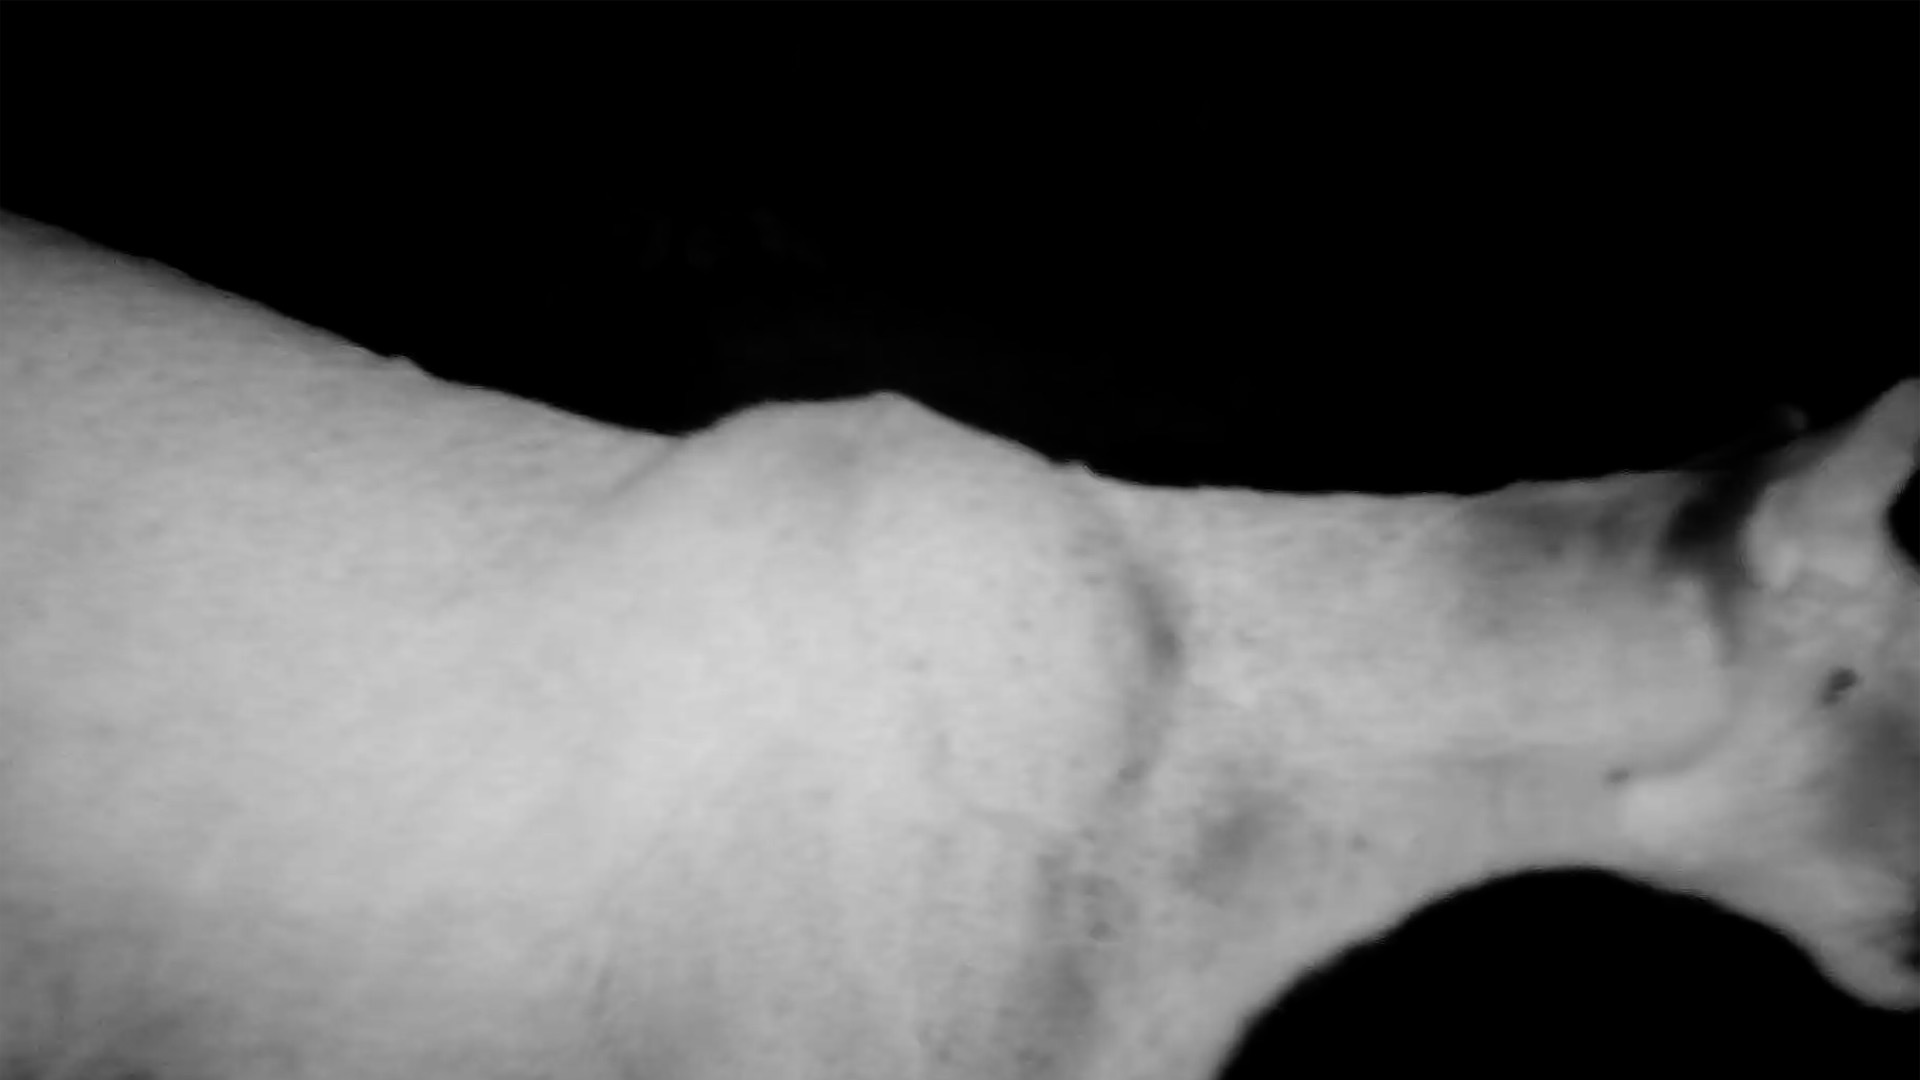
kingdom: Animalia
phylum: Chordata
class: Mammalia
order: Carnivora
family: Felidae
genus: Puma
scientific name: Puma concolor
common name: Puma
